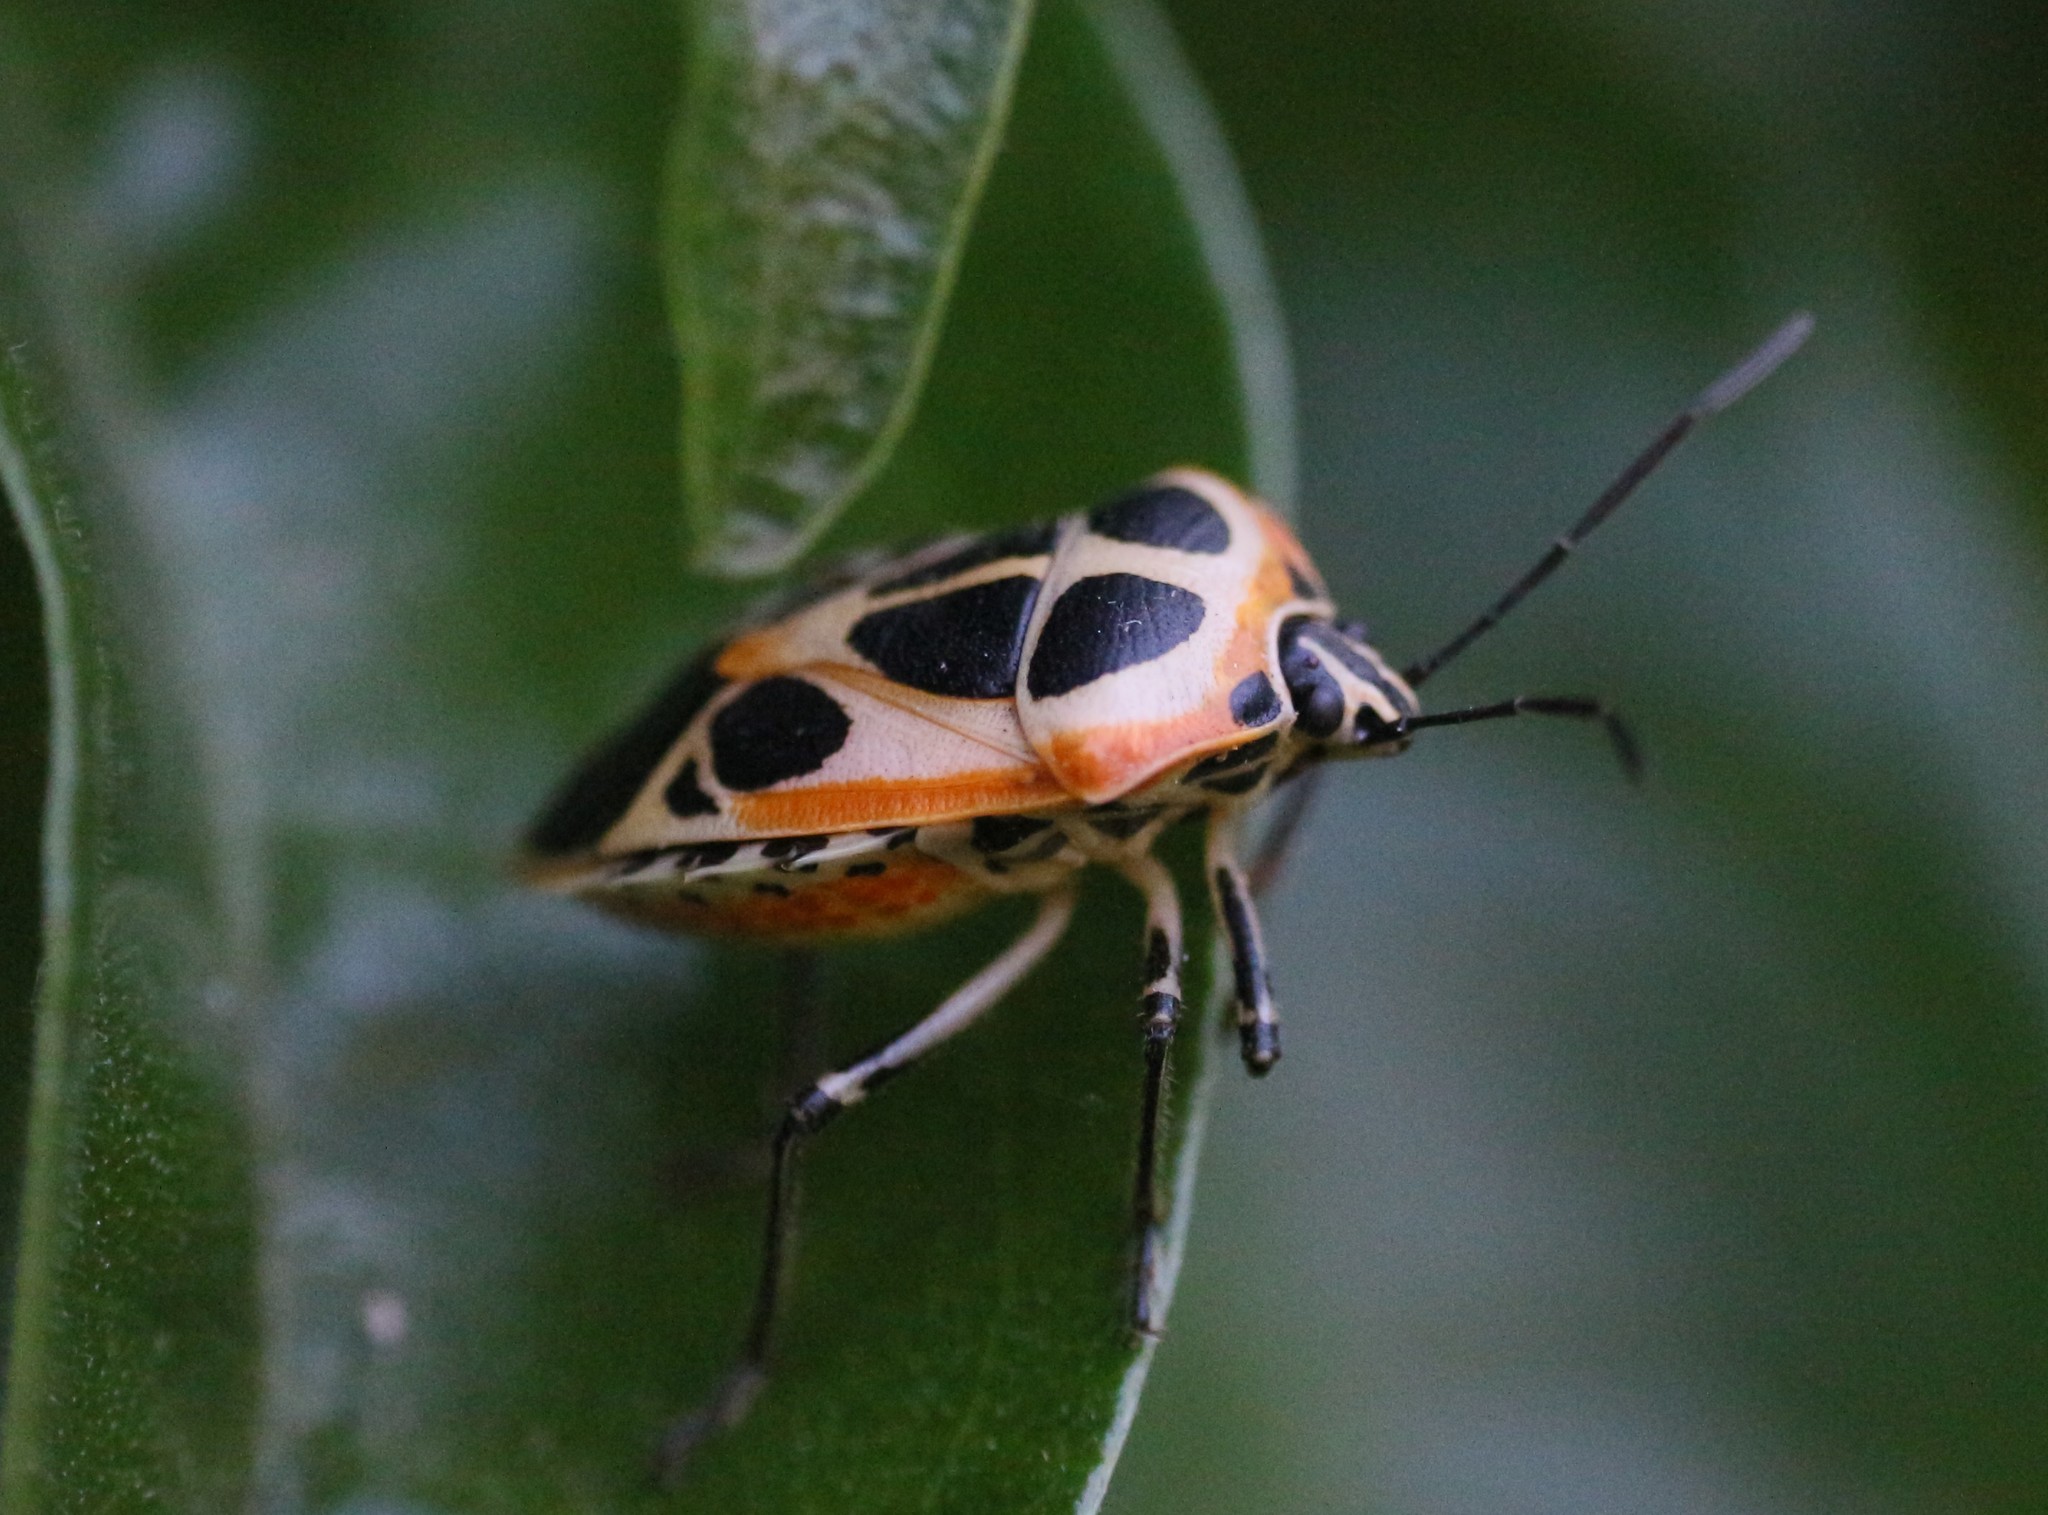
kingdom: Animalia
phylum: Arthropoda
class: Insecta
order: Hemiptera
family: Pentatomidae
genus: Runibia
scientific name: Runibia perspicua
